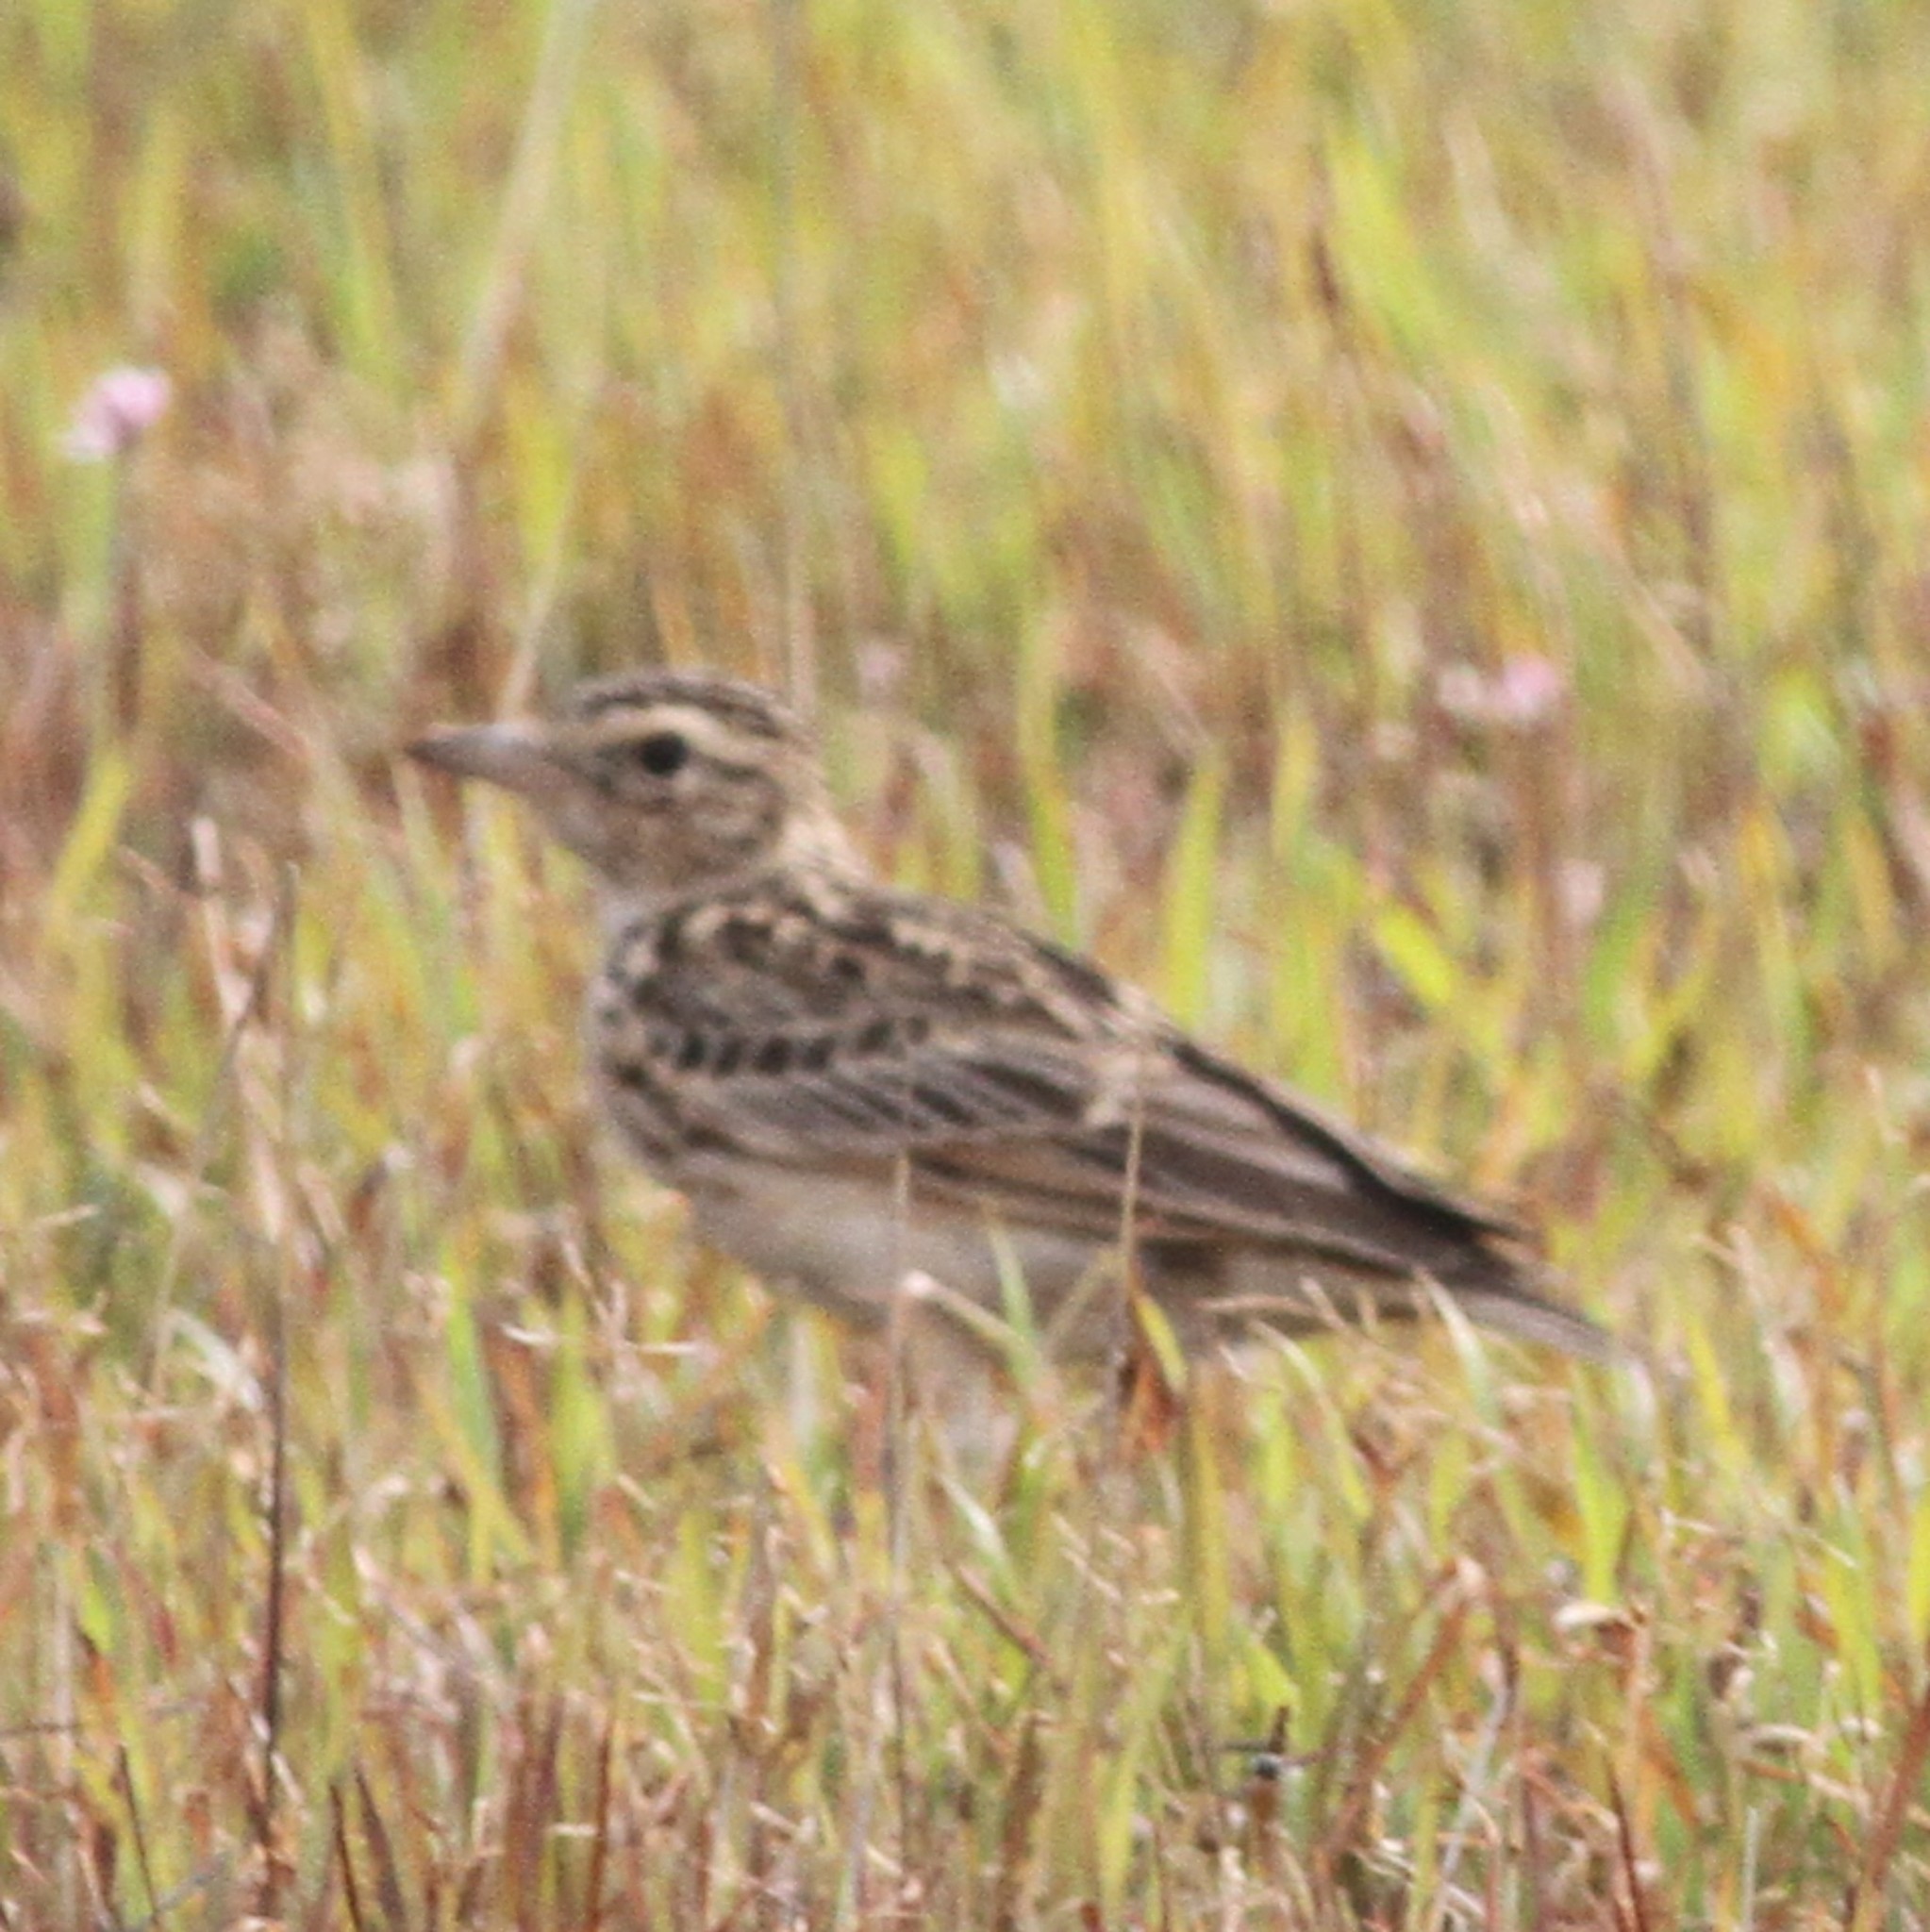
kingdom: Animalia
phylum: Chordata
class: Aves
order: Passeriformes
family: Alaudidae
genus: Mirafra
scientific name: Mirafra affinis
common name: Jerdon's bushlark
